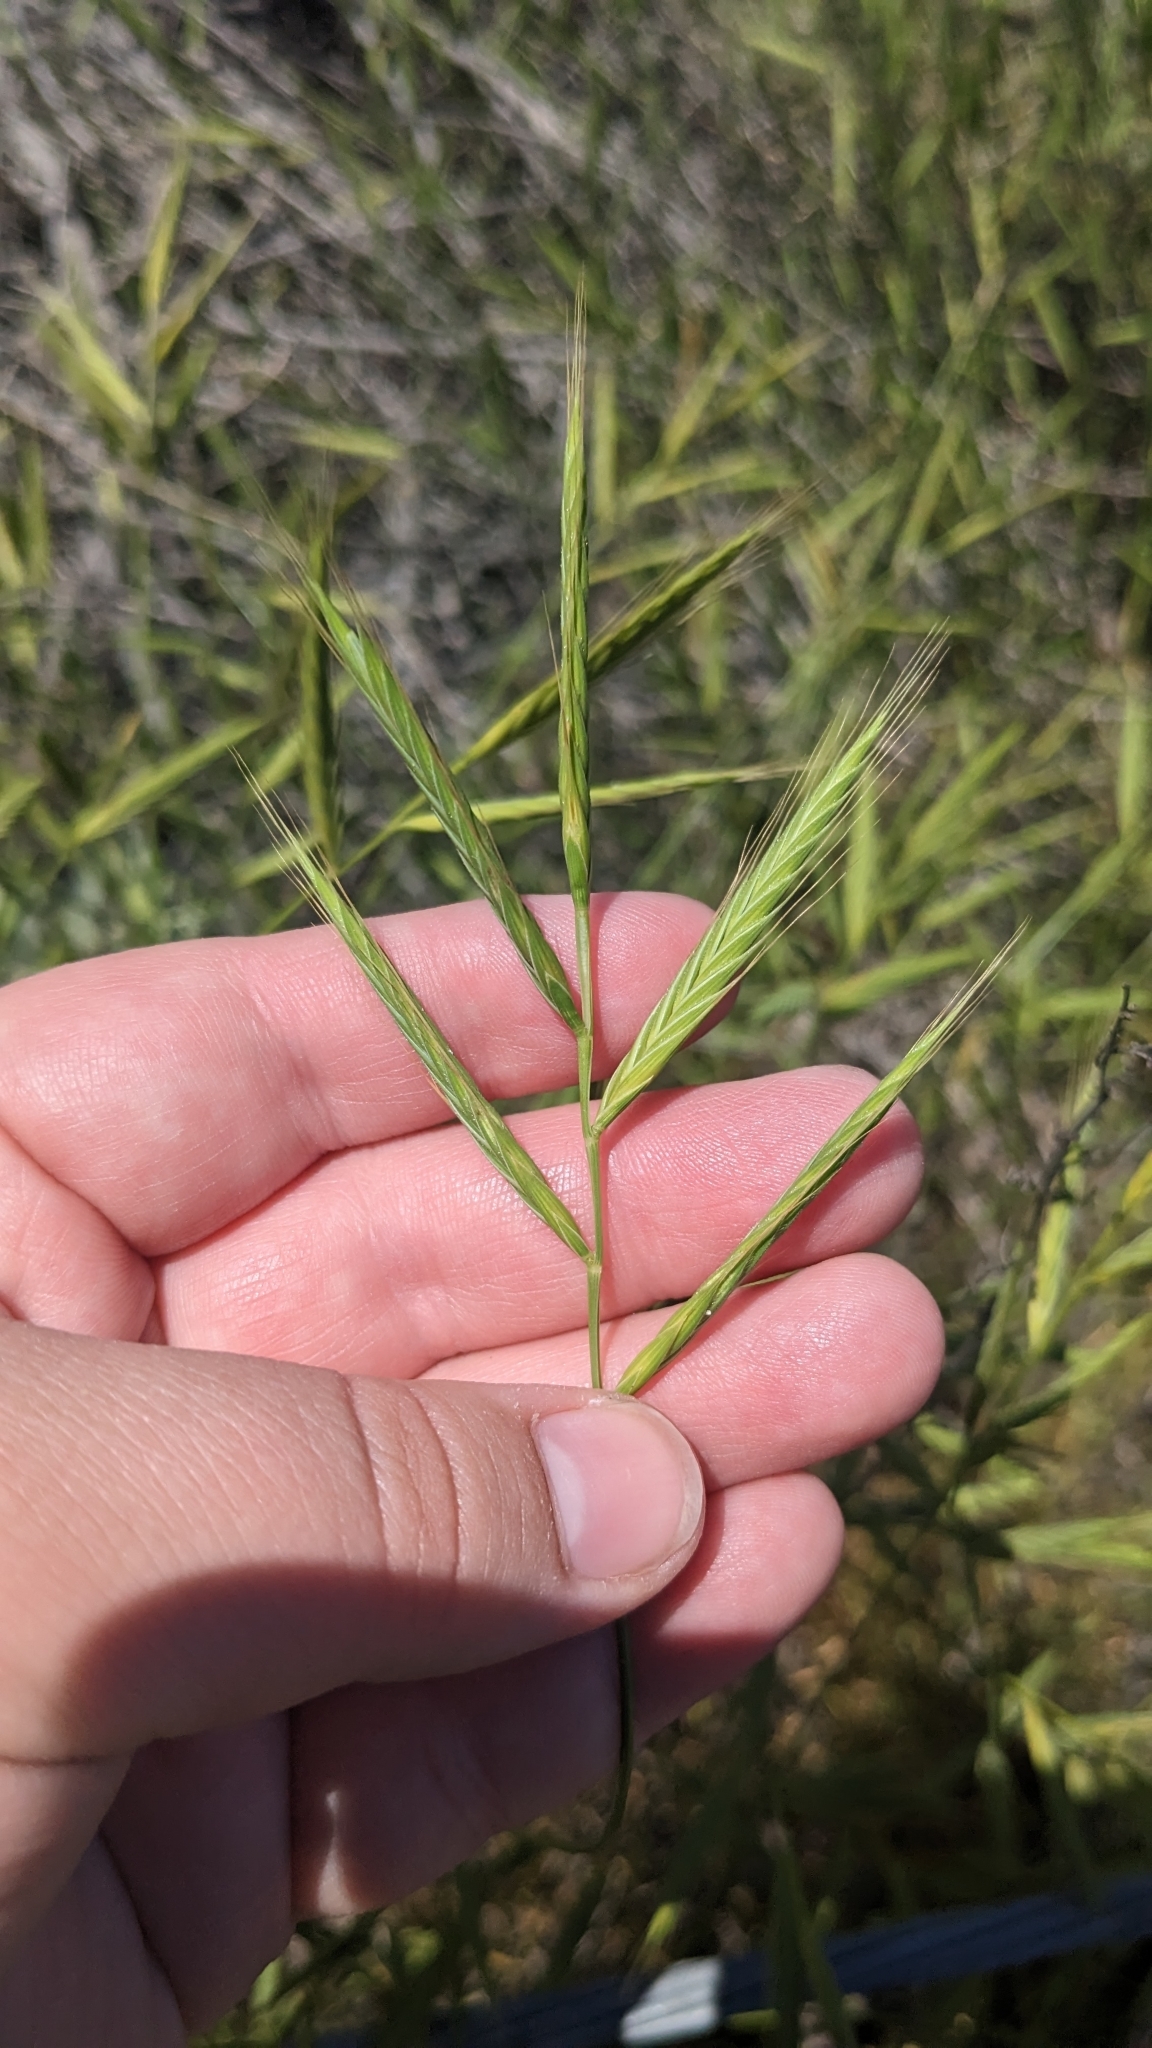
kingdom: Plantae
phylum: Tracheophyta
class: Liliopsida
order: Poales
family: Poaceae
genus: Brachypodium
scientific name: Brachypodium distachyon
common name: Stiff brome
